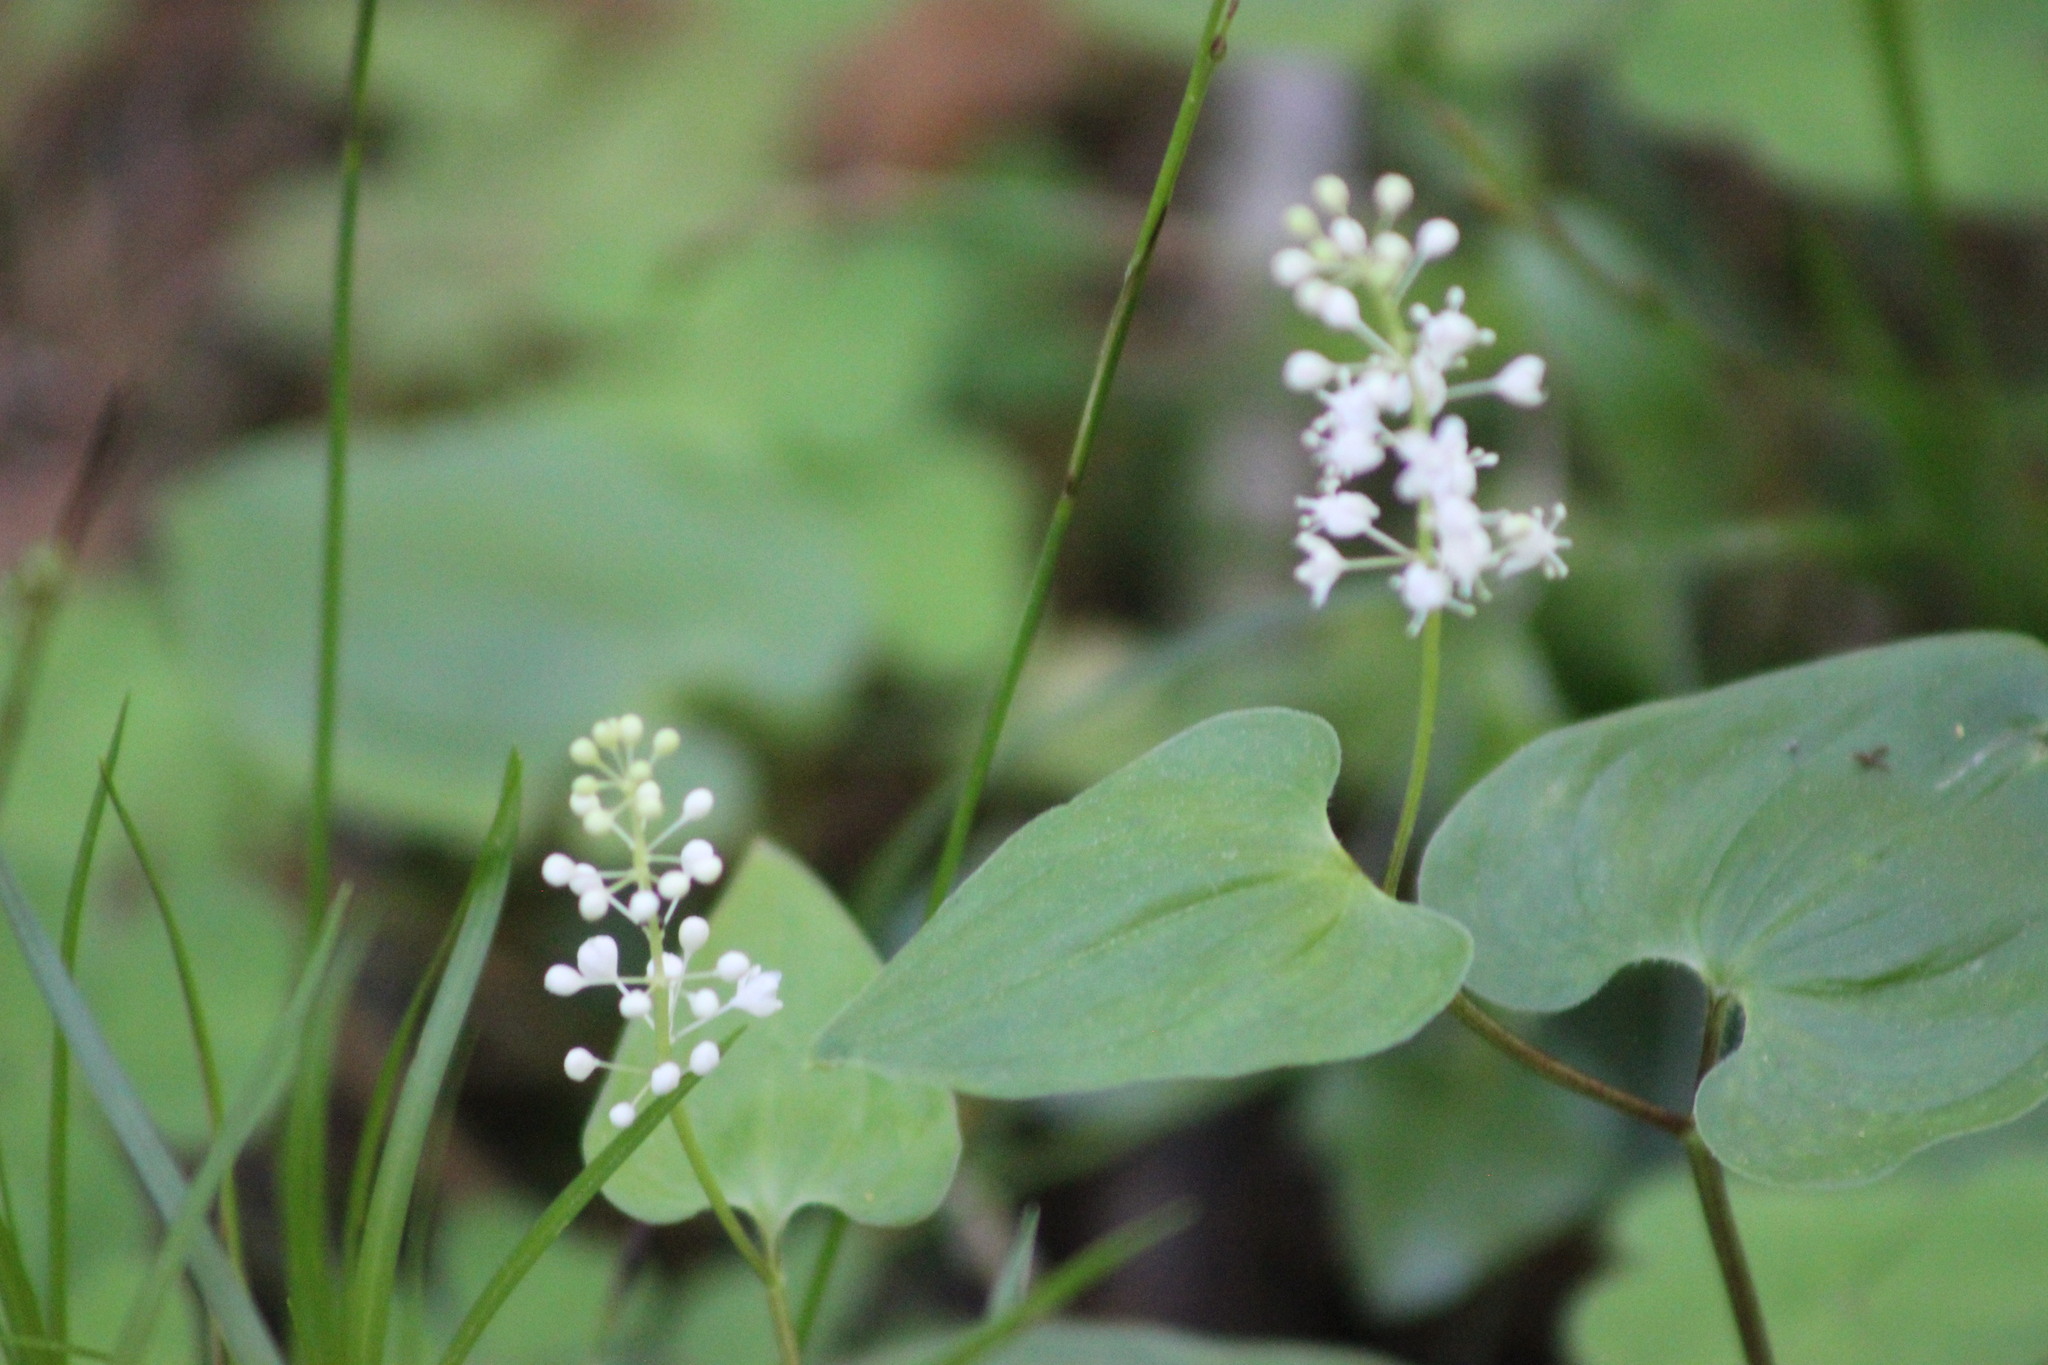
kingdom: Plantae
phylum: Tracheophyta
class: Liliopsida
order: Asparagales
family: Asparagaceae
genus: Maianthemum
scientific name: Maianthemum bifolium
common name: May lily
